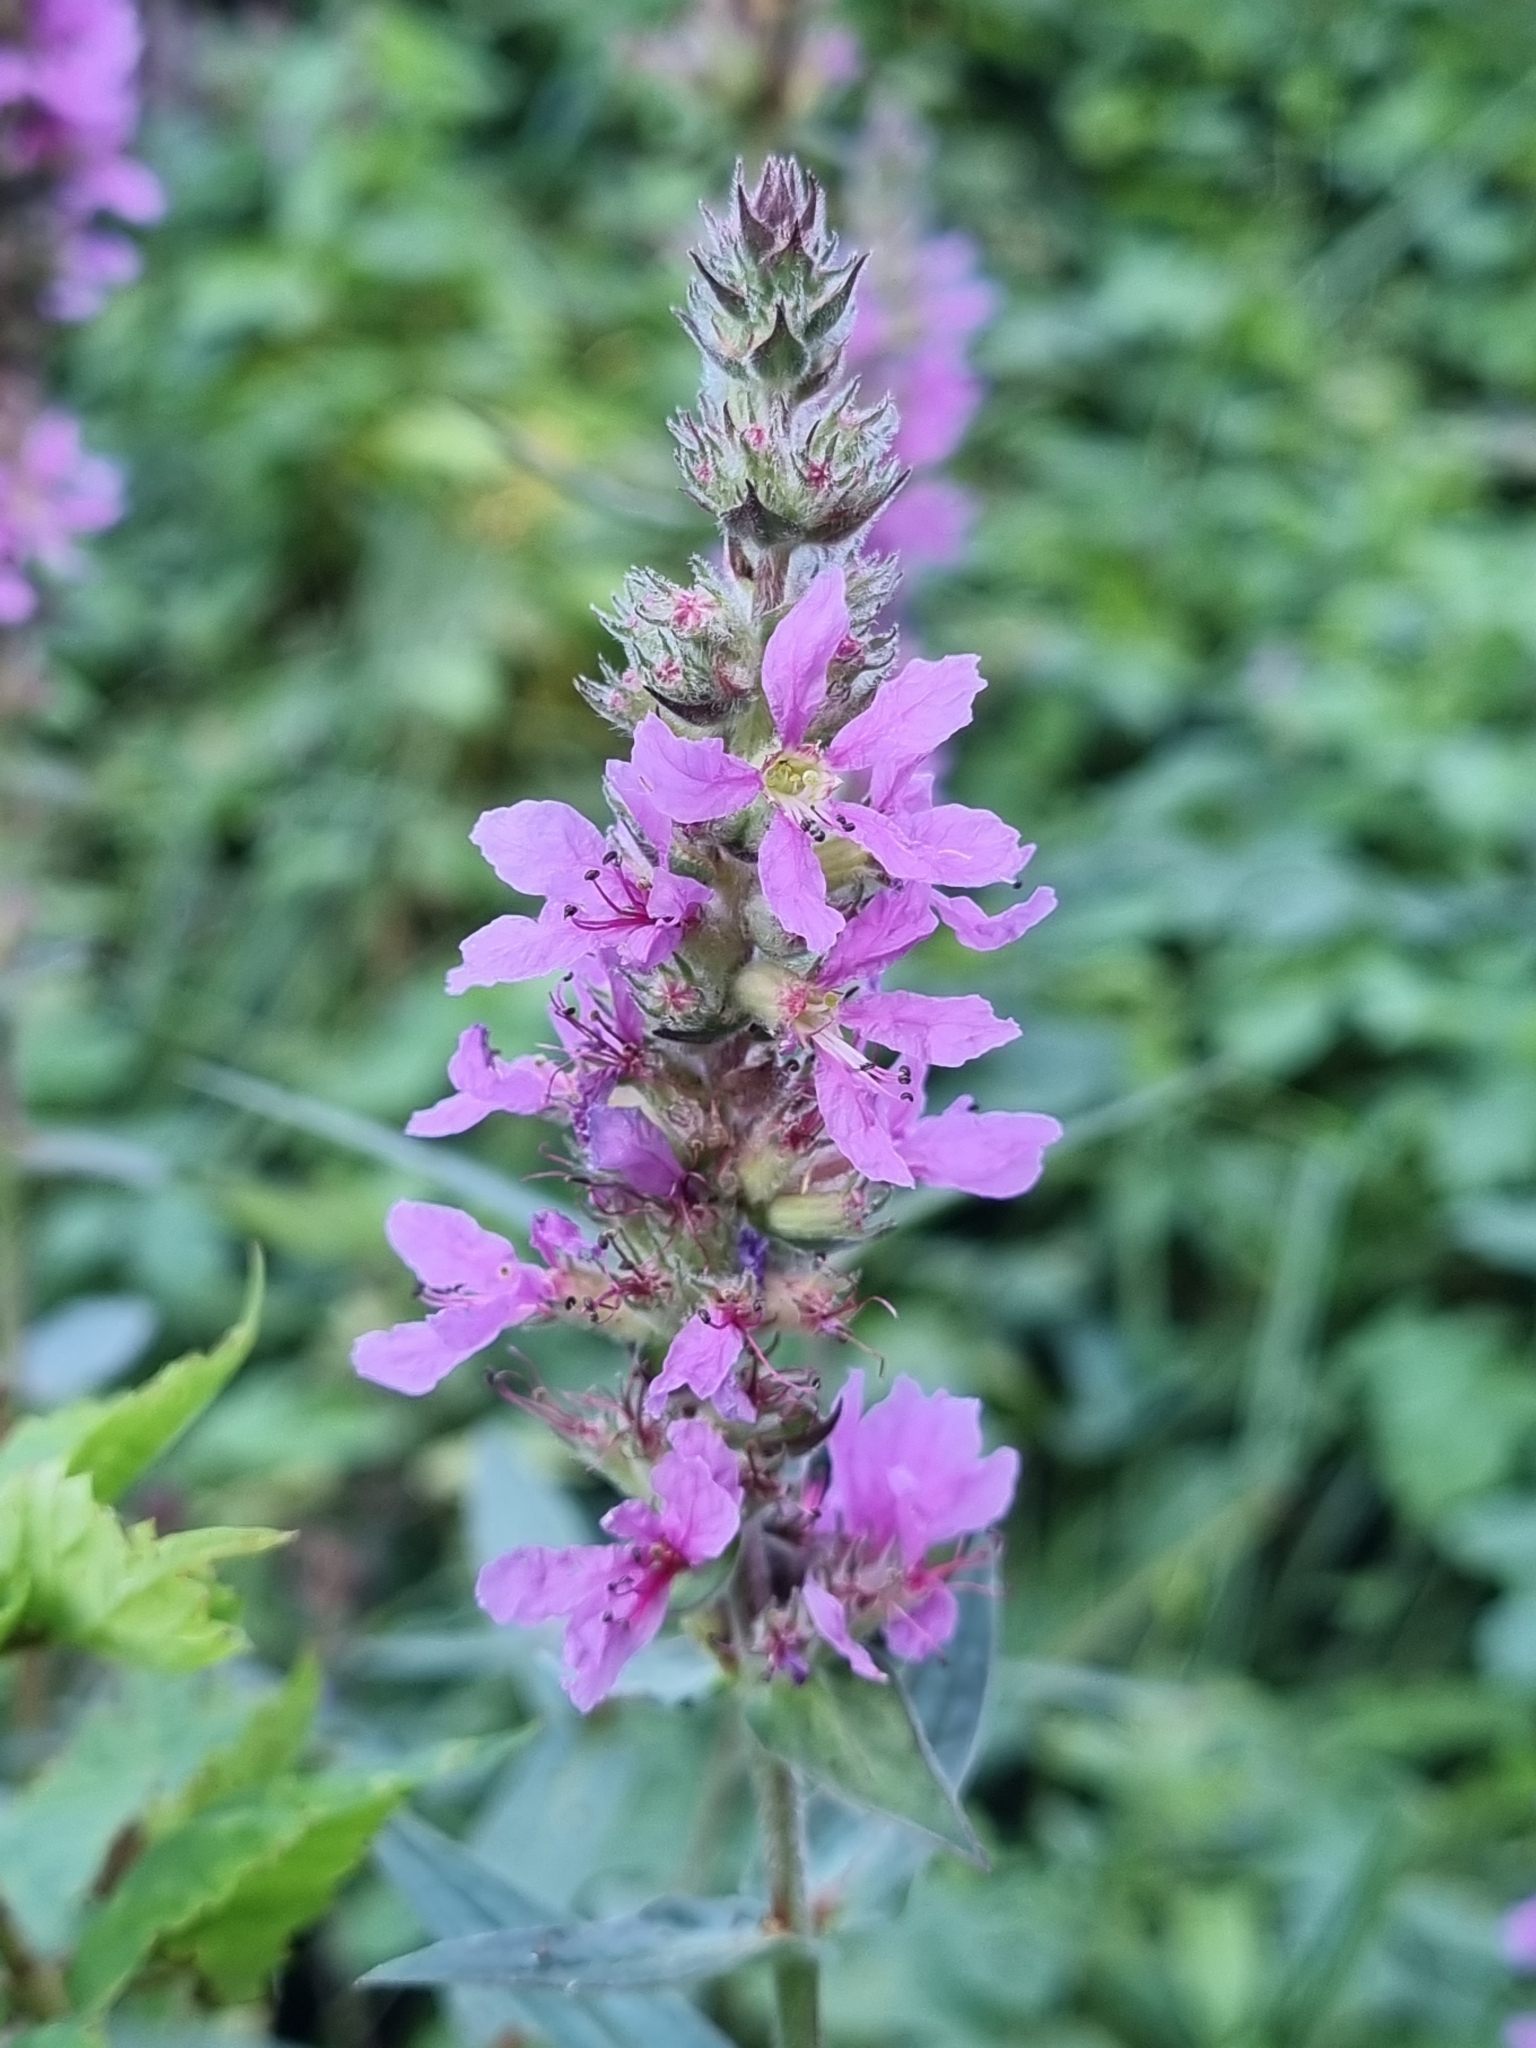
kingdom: Plantae
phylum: Tracheophyta
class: Magnoliopsida
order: Myrtales
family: Lythraceae
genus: Lythrum
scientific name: Lythrum salicaria
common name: Purple loosestrife
